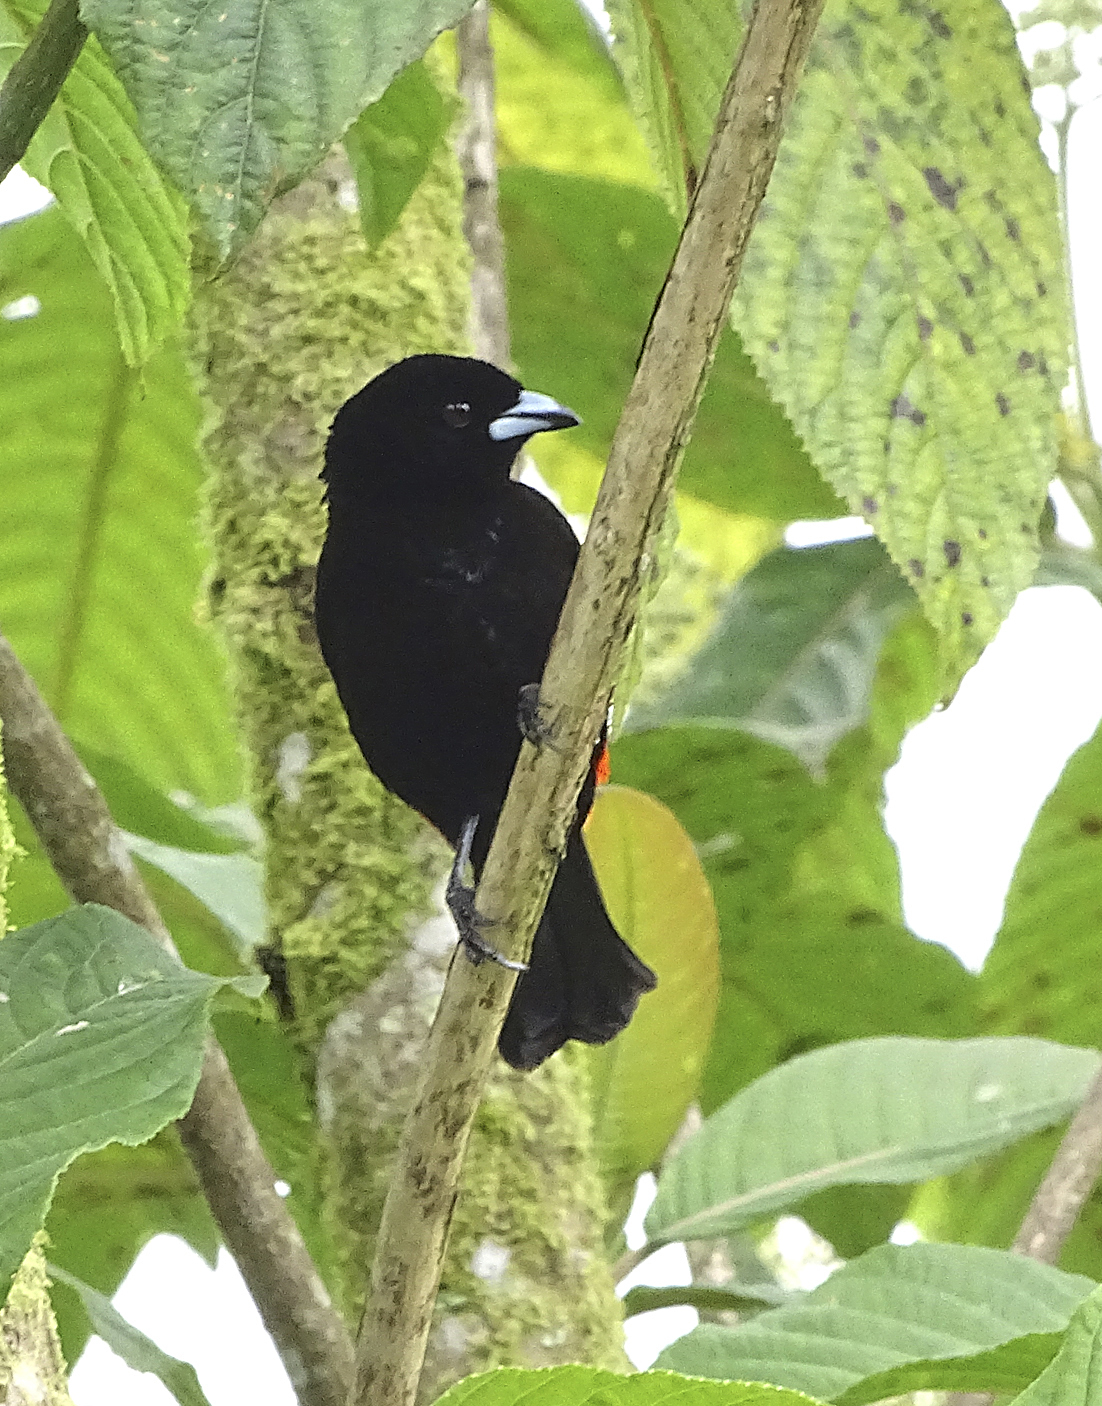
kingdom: Animalia
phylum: Chordata
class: Aves
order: Passeriformes
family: Thraupidae
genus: Ramphocelus
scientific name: Ramphocelus passerinii
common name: Passerini's tanager
